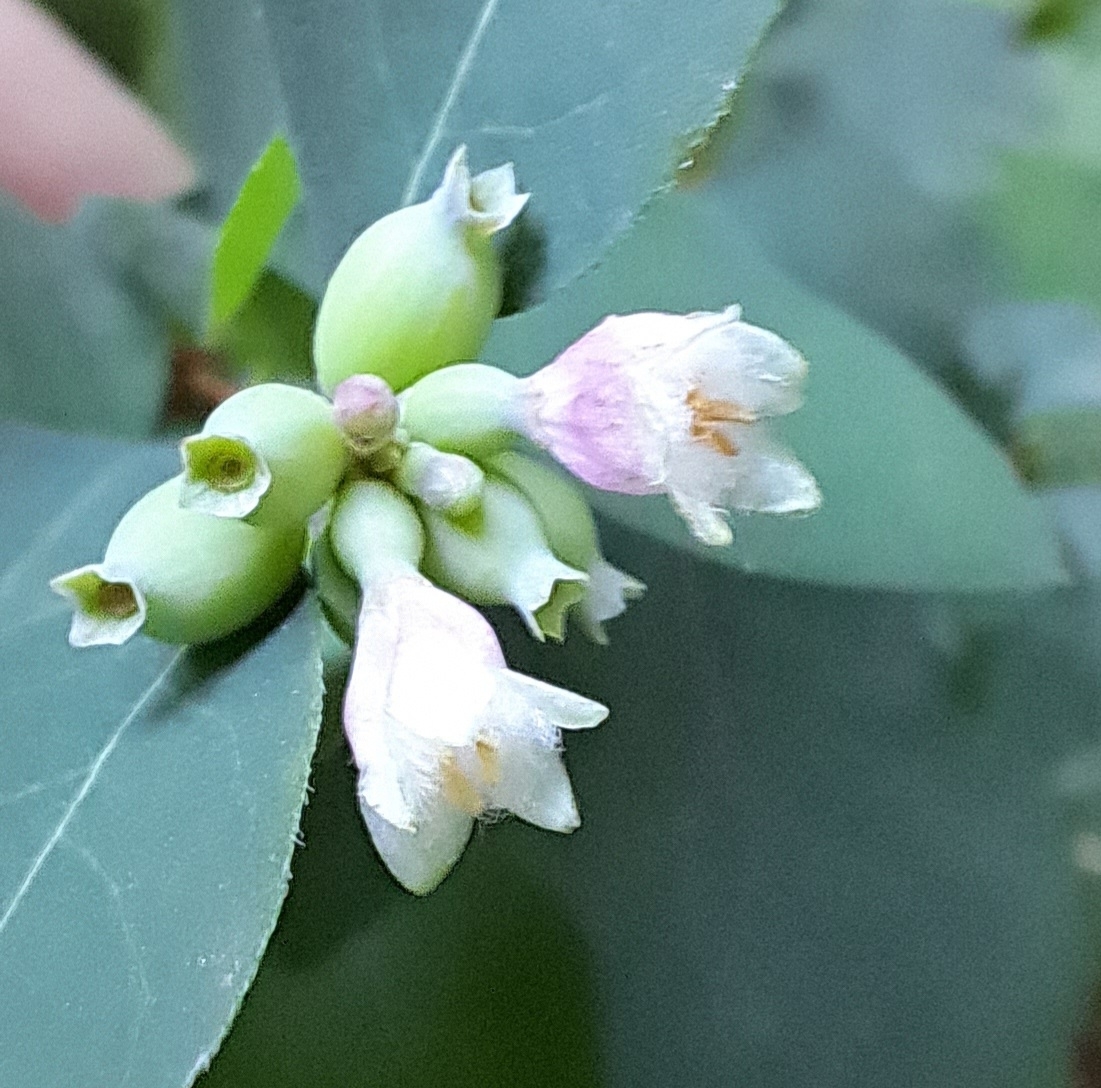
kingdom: Plantae
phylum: Tracheophyta
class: Magnoliopsida
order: Dipsacales
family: Caprifoliaceae
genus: Symphoricarpos
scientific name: Symphoricarpos albus
